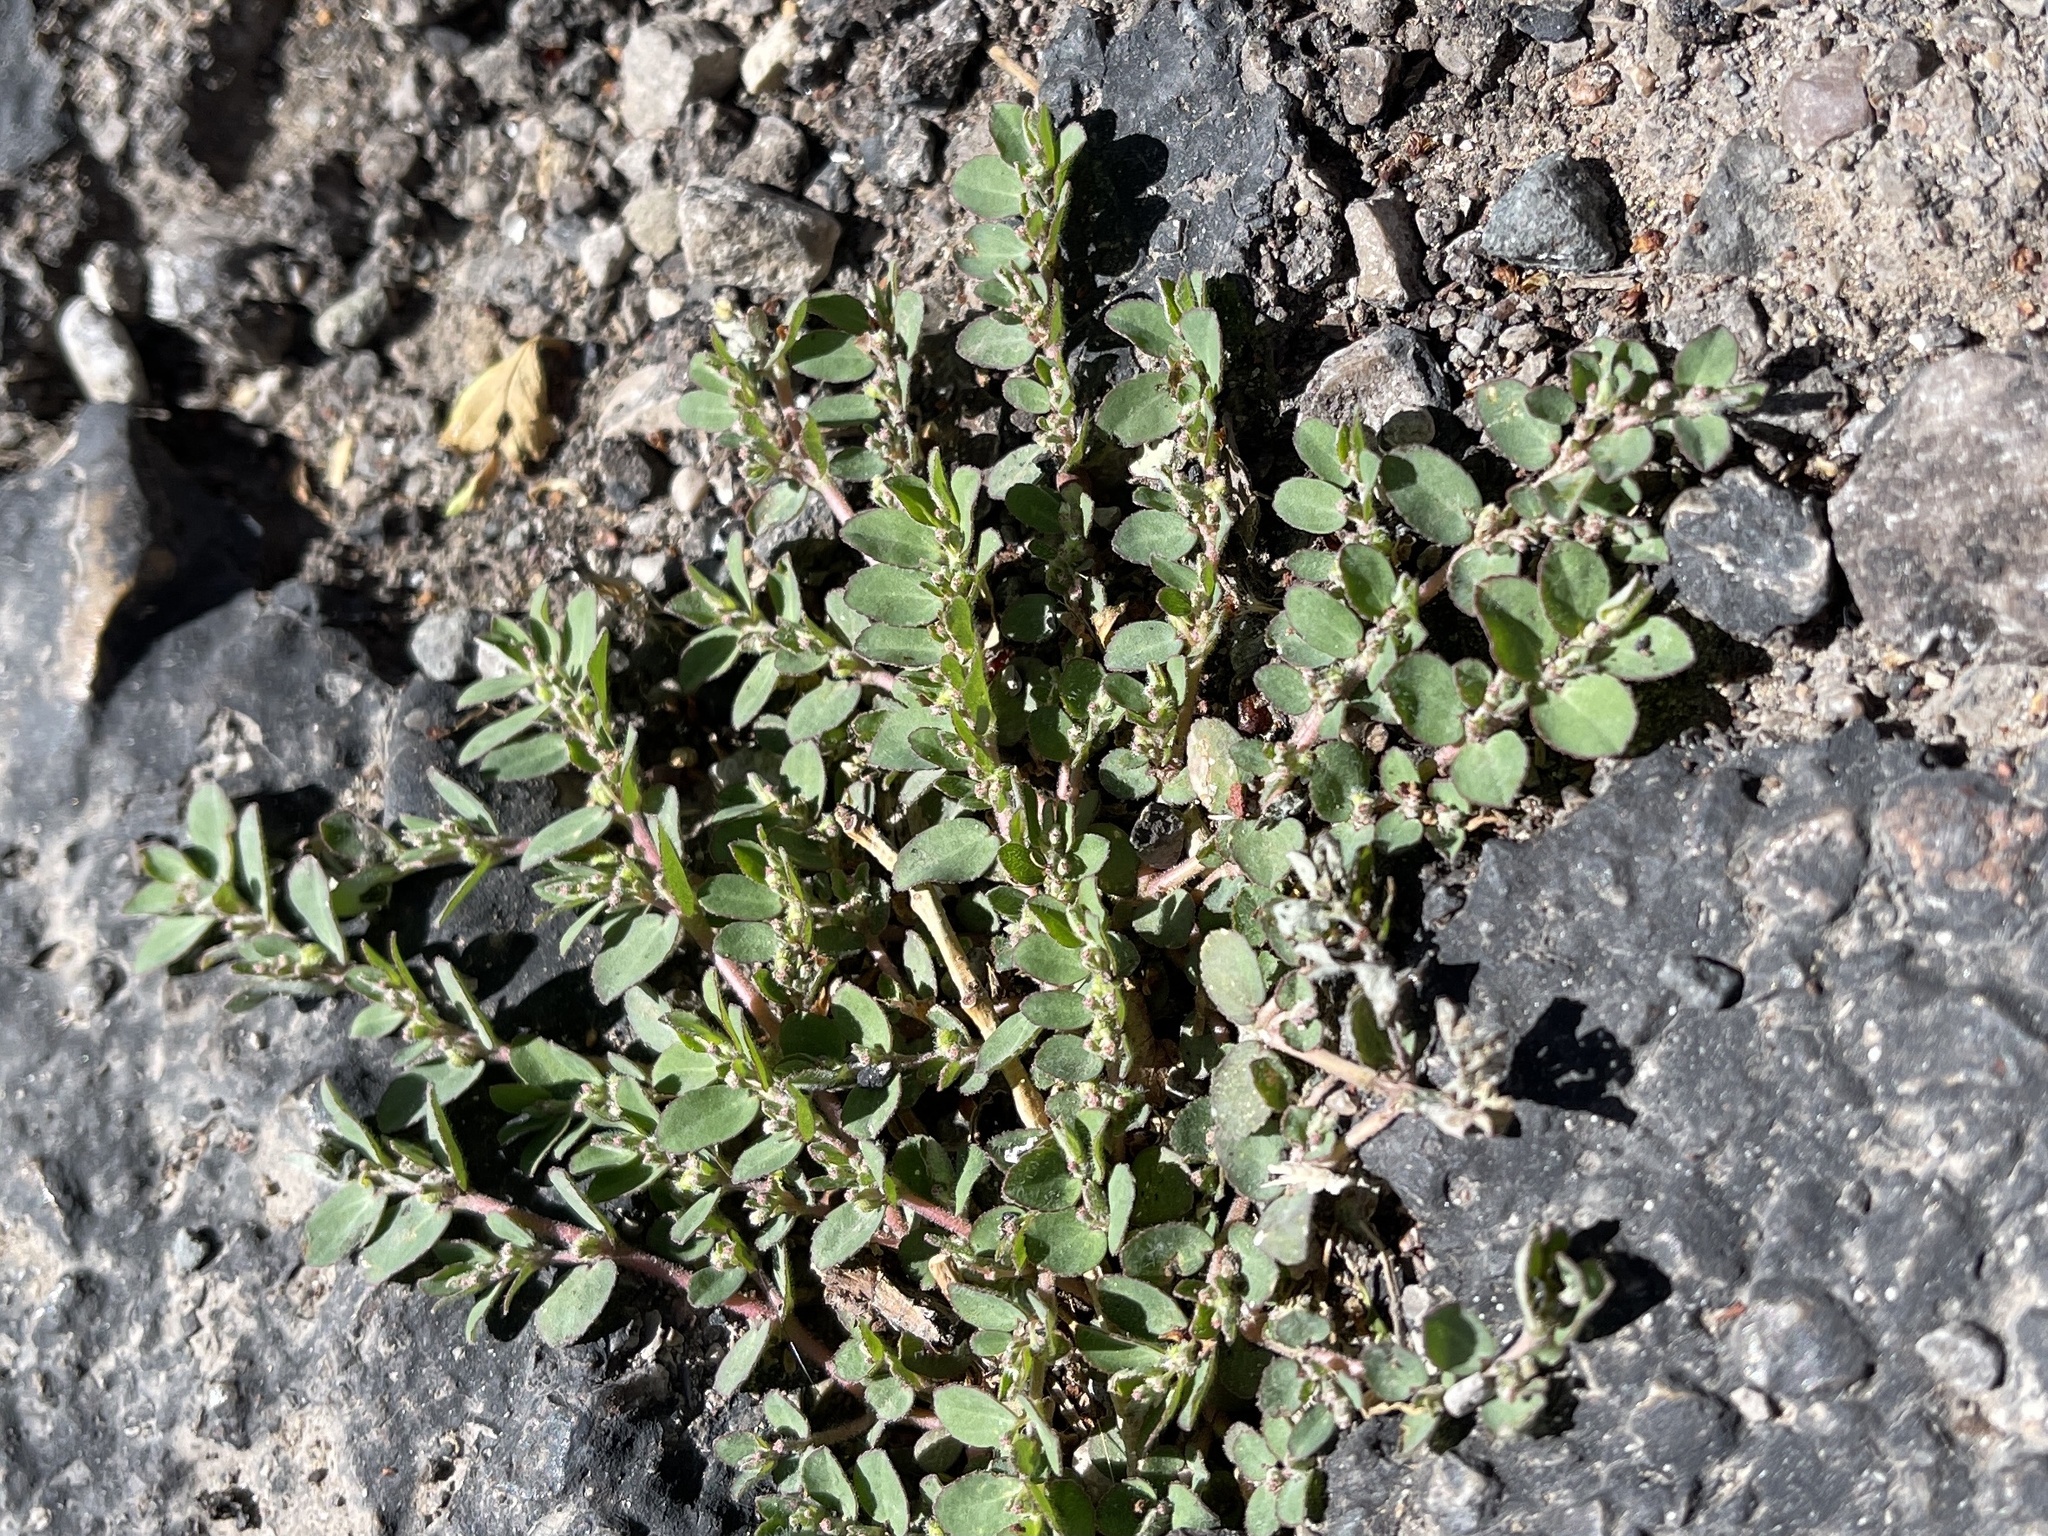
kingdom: Plantae
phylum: Tracheophyta
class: Magnoliopsida
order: Malpighiales
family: Euphorbiaceae
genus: Euphorbia
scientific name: Euphorbia prostrata
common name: Prostrate sandmat
